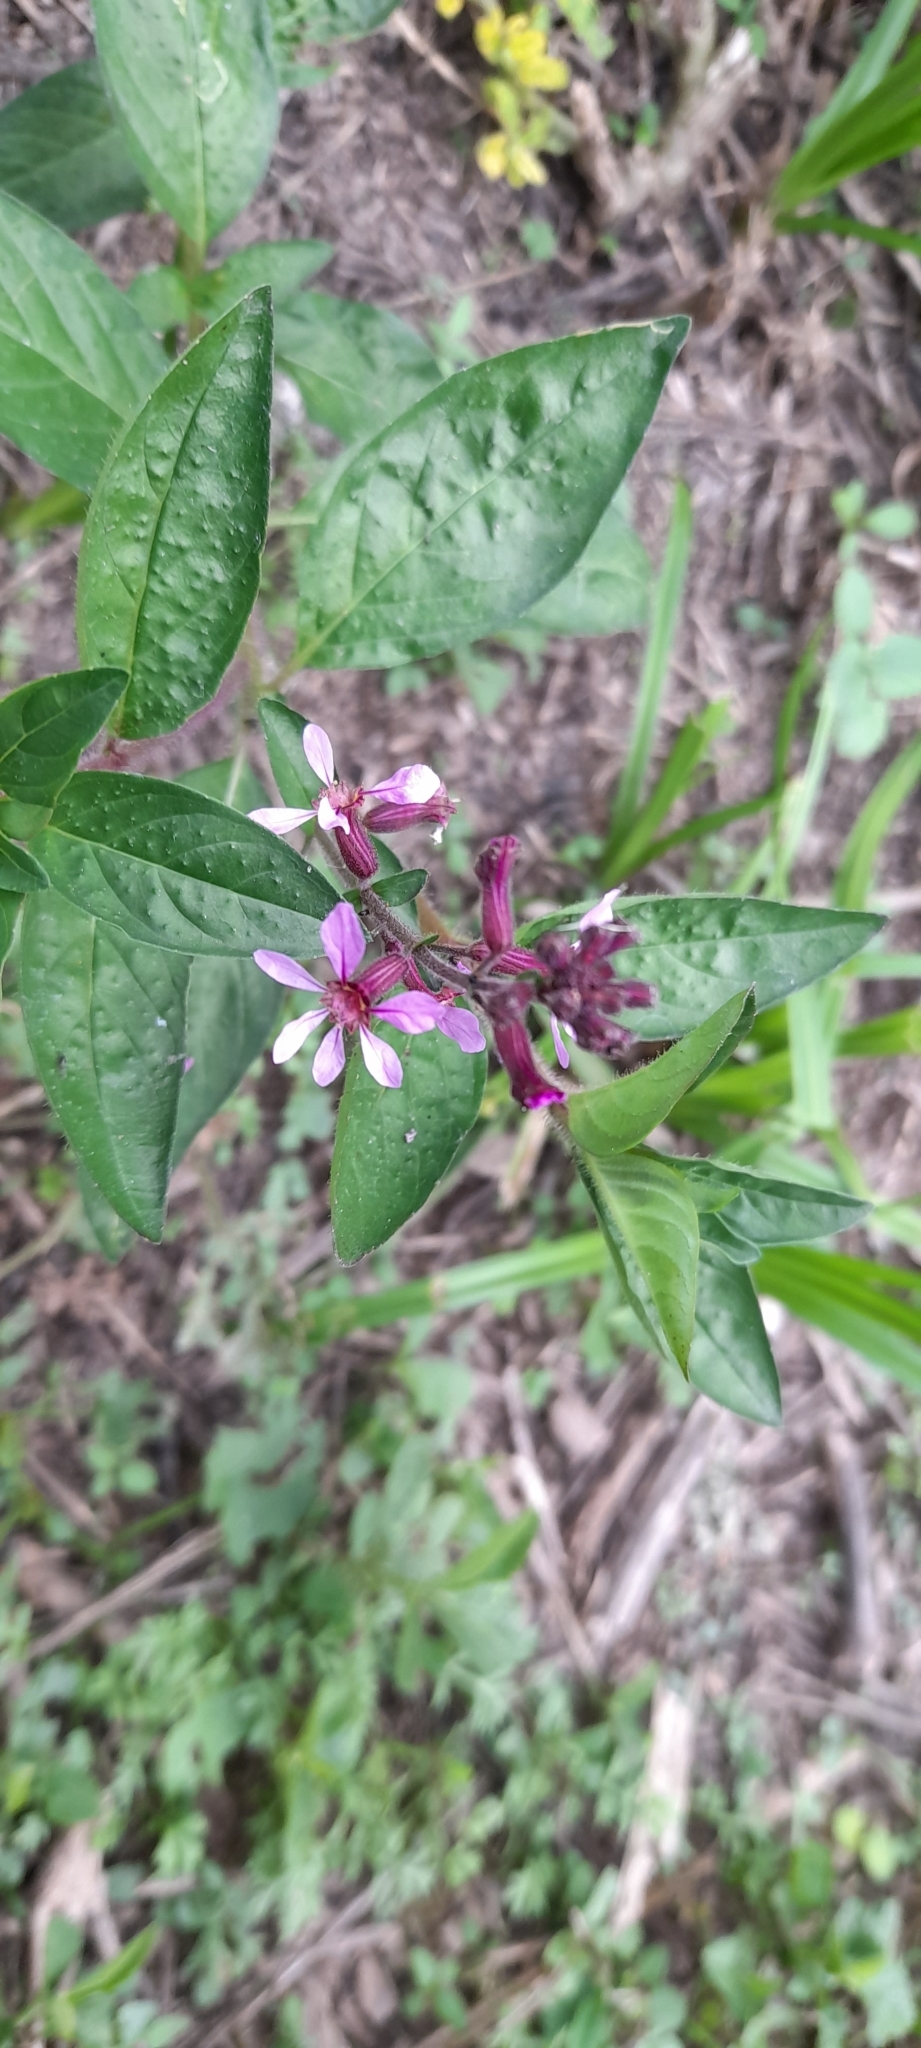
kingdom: Plantae
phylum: Tracheophyta
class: Magnoliopsida
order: Myrtales
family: Lythraceae
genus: Cuphea
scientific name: Cuphea racemosa
